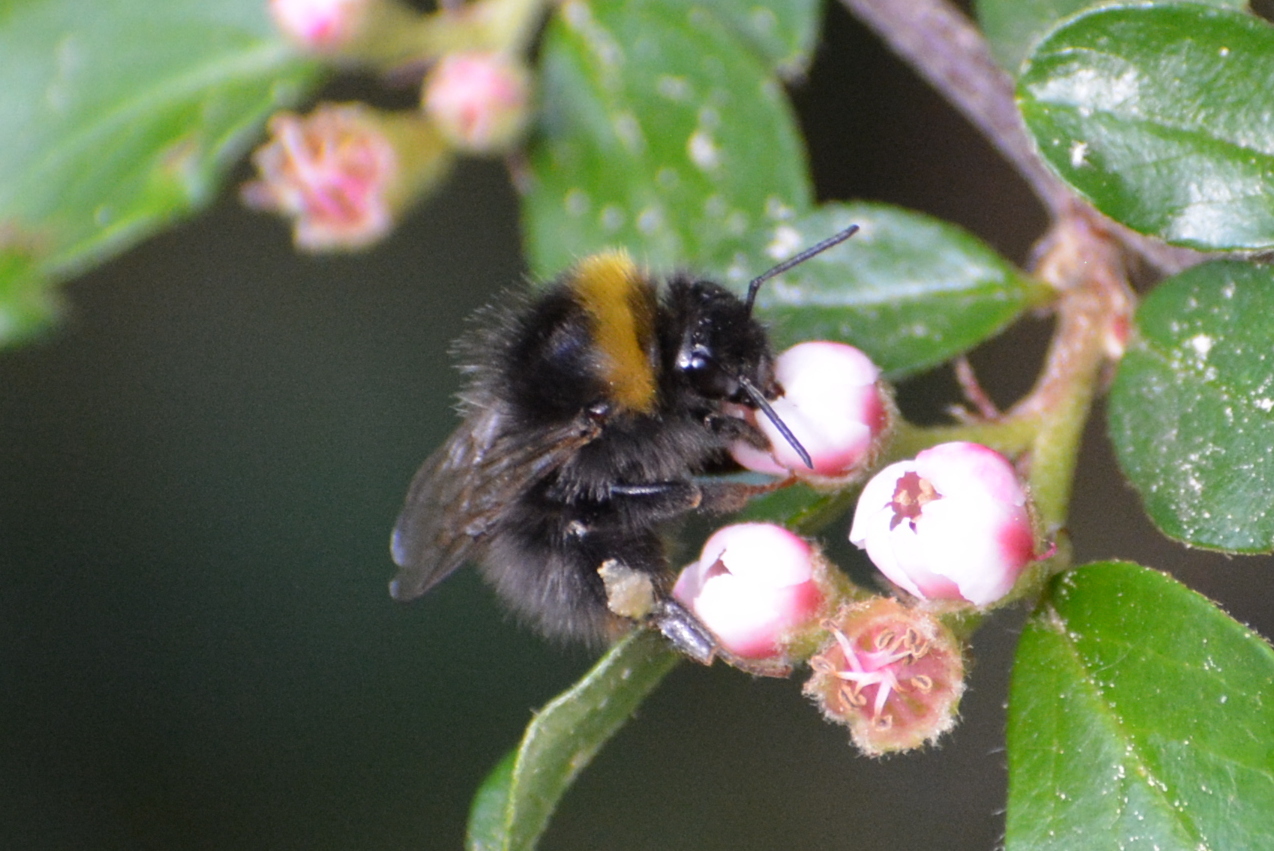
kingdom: Animalia
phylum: Arthropoda
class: Insecta
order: Hymenoptera
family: Apidae
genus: Bombus
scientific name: Bombus pratorum
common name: Early humble-bee
